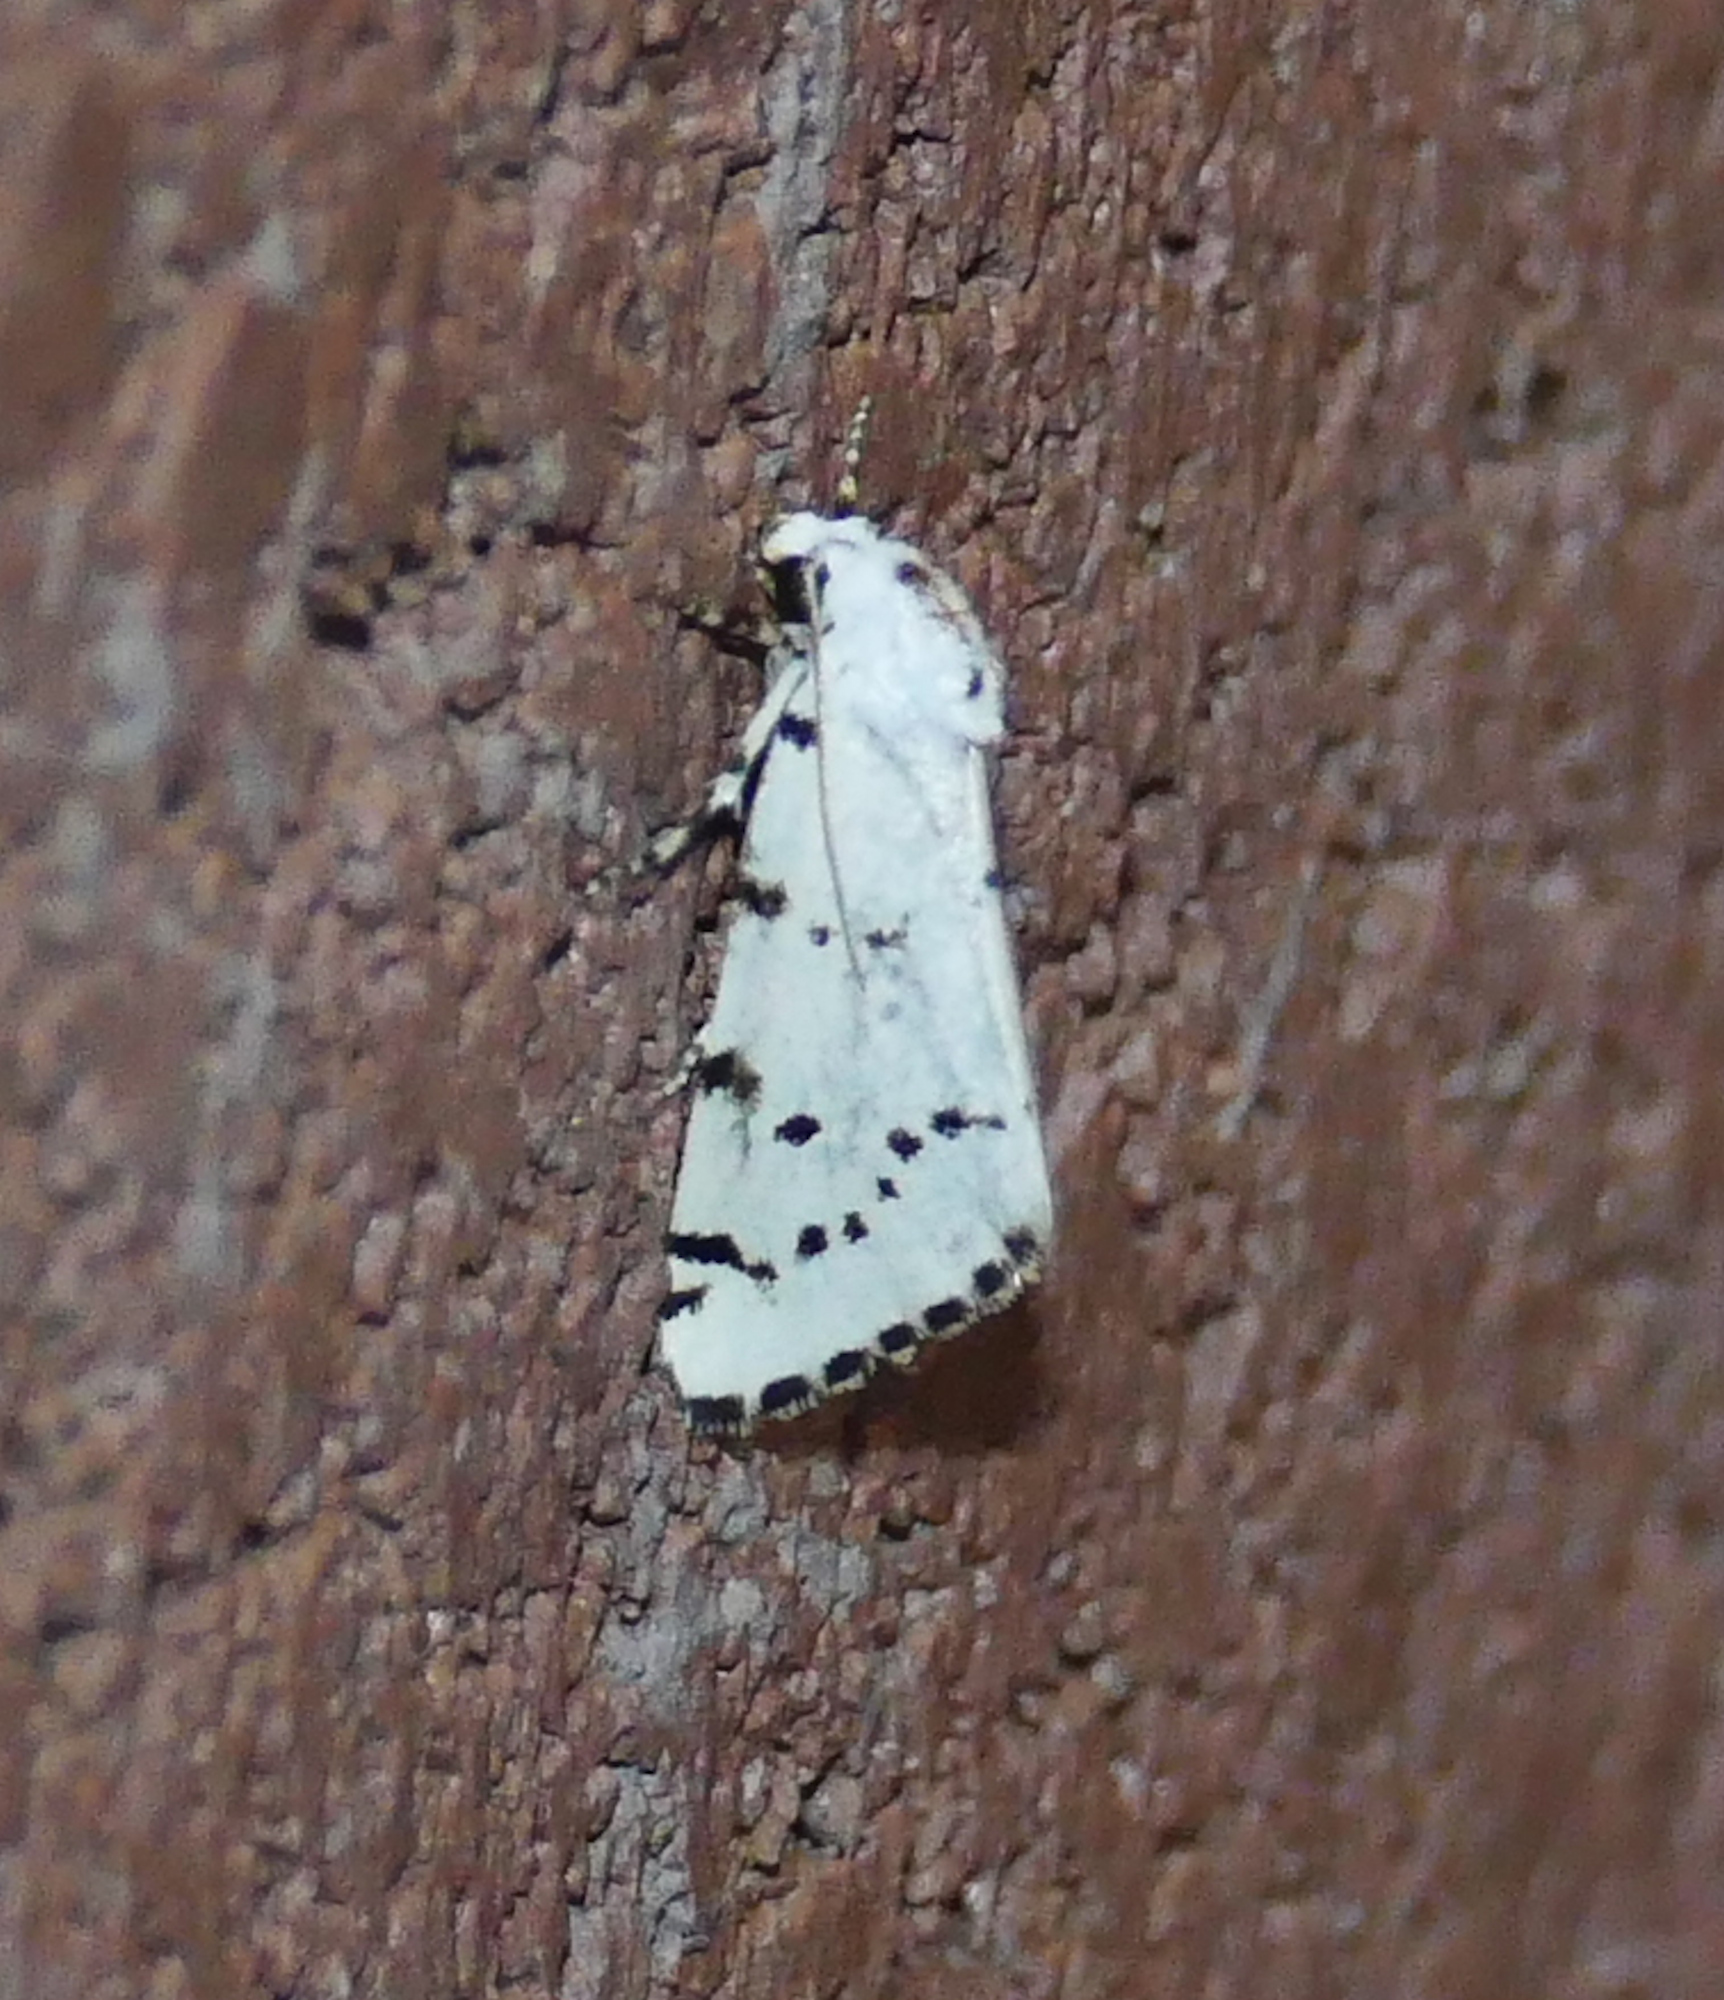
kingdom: Animalia
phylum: Arthropoda
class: Insecta
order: Lepidoptera
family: Noctuidae
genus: Grotella
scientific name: Grotella binda
